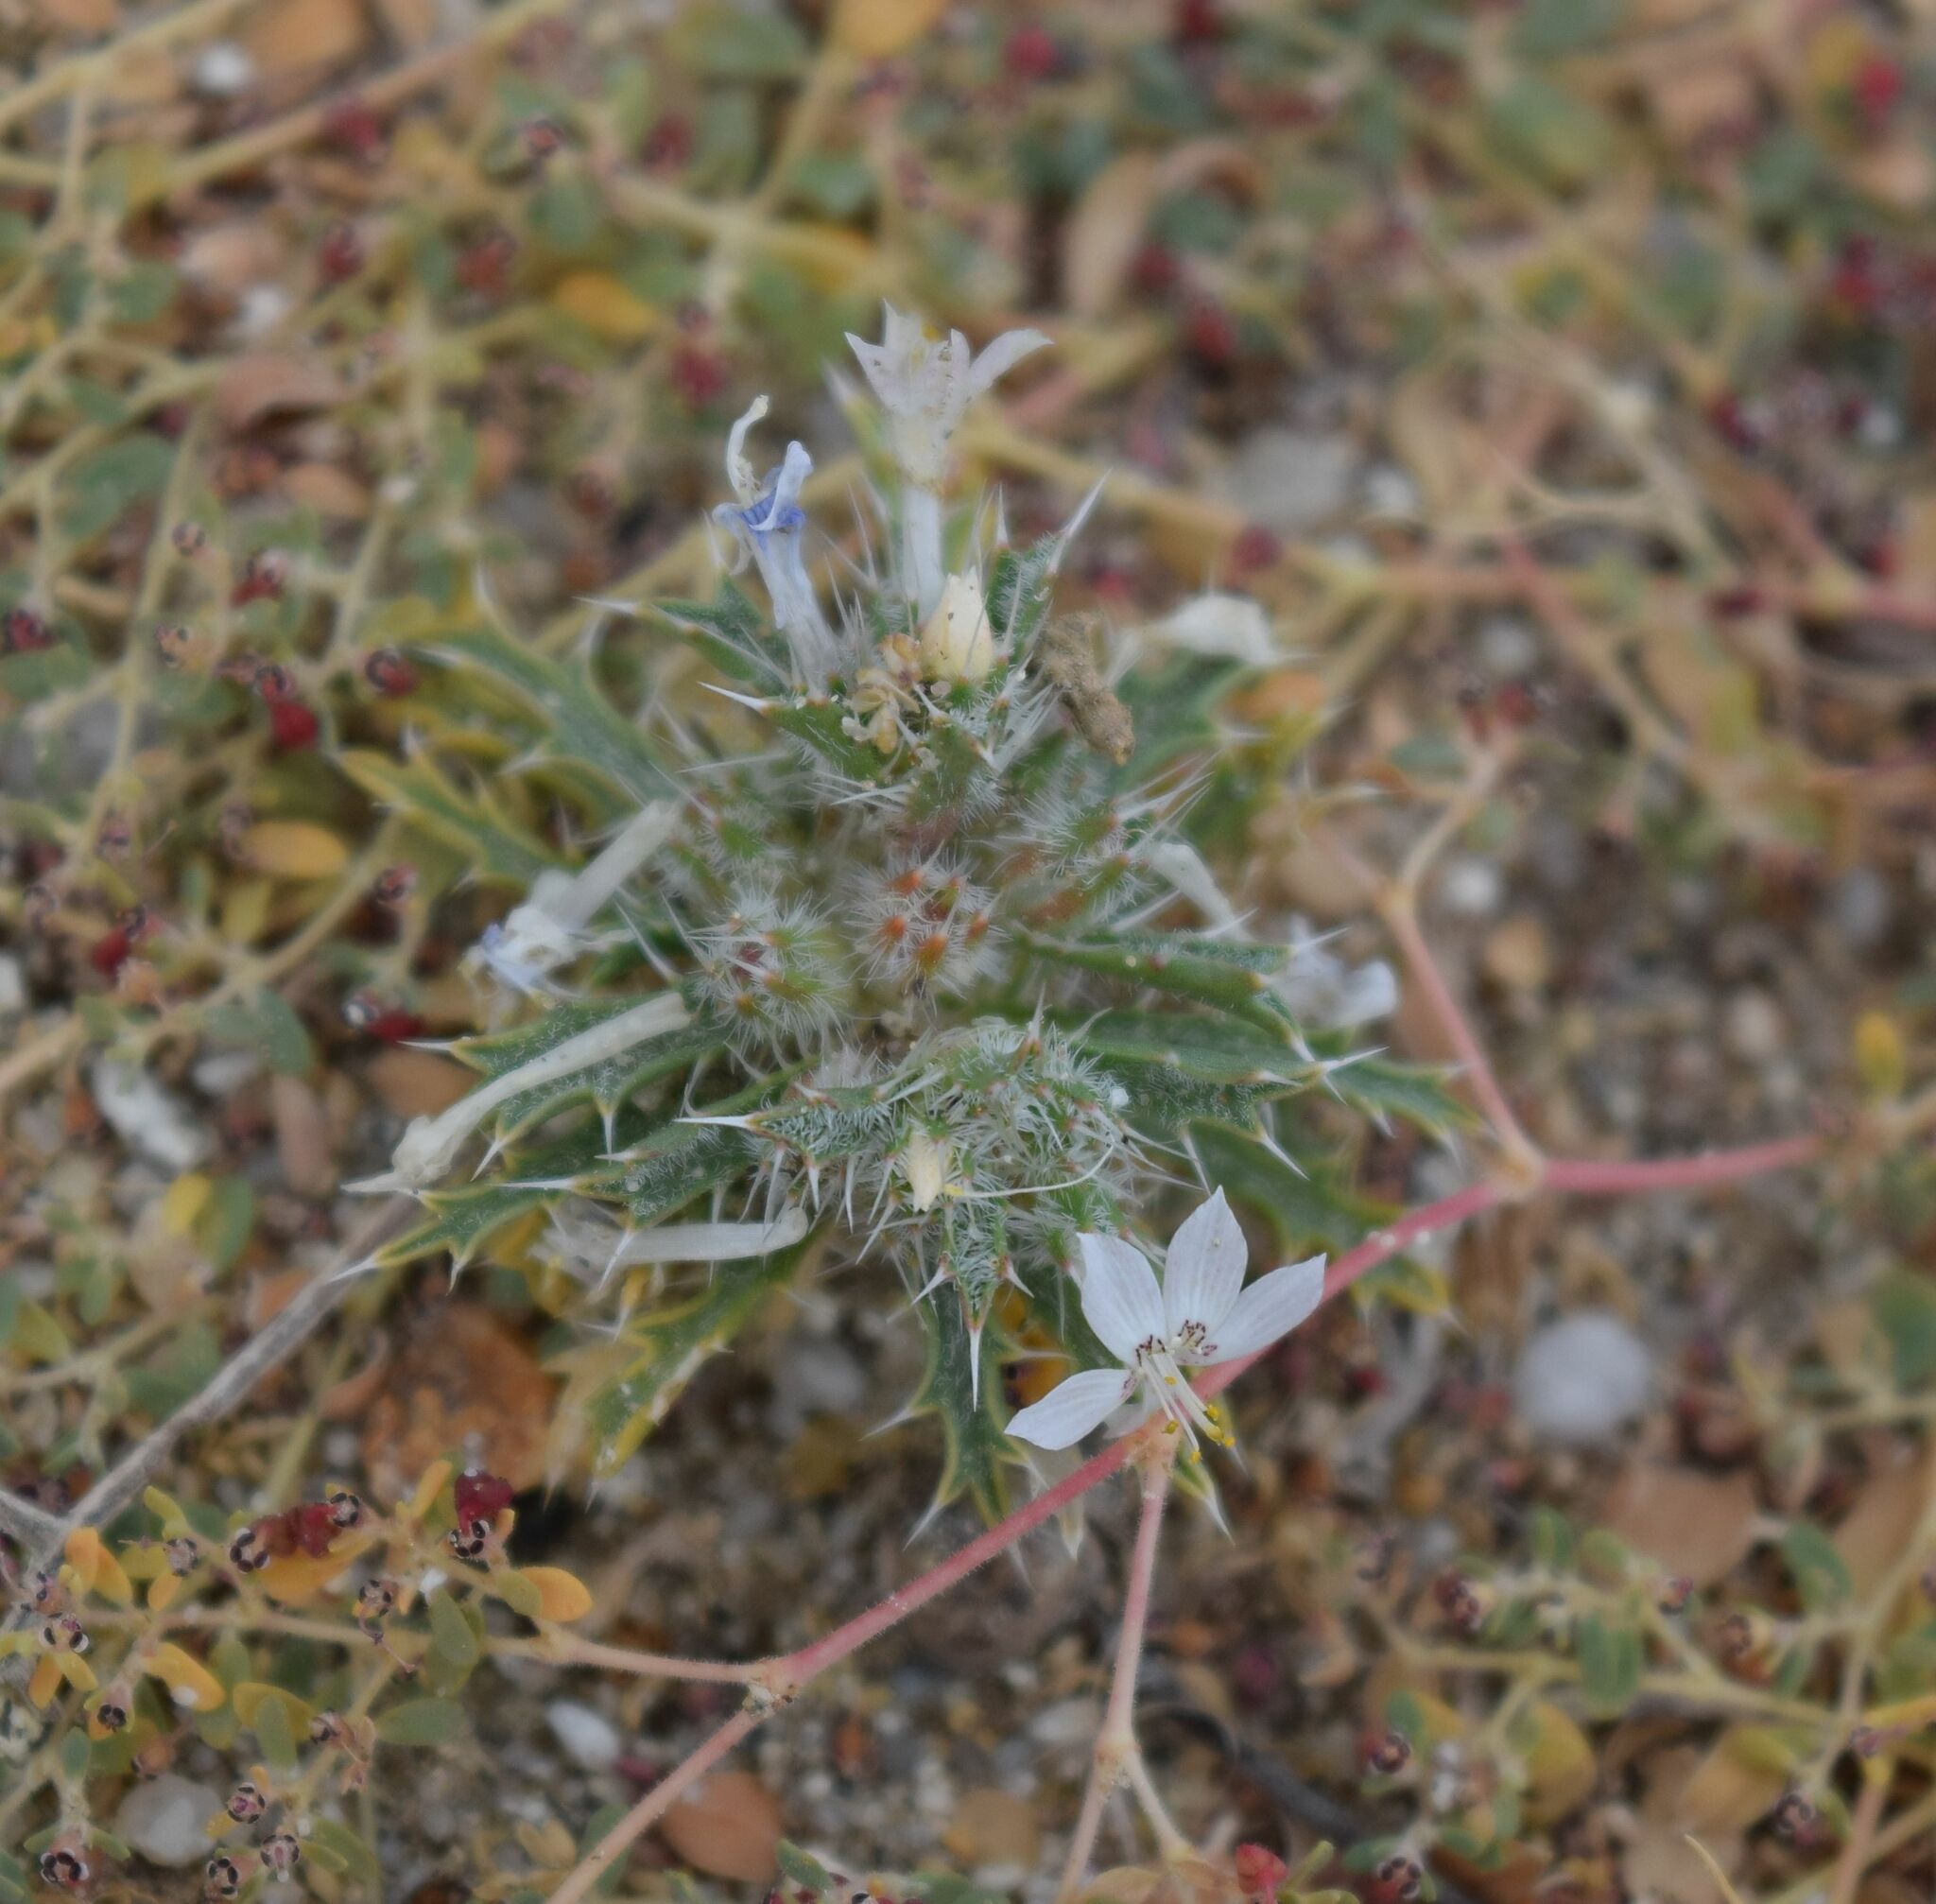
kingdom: Plantae
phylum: Tracheophyta
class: Magnoliopsida
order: Ericales
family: Polemoniaceae
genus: Loeseliastrum
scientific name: Loeseliastrum schottii
